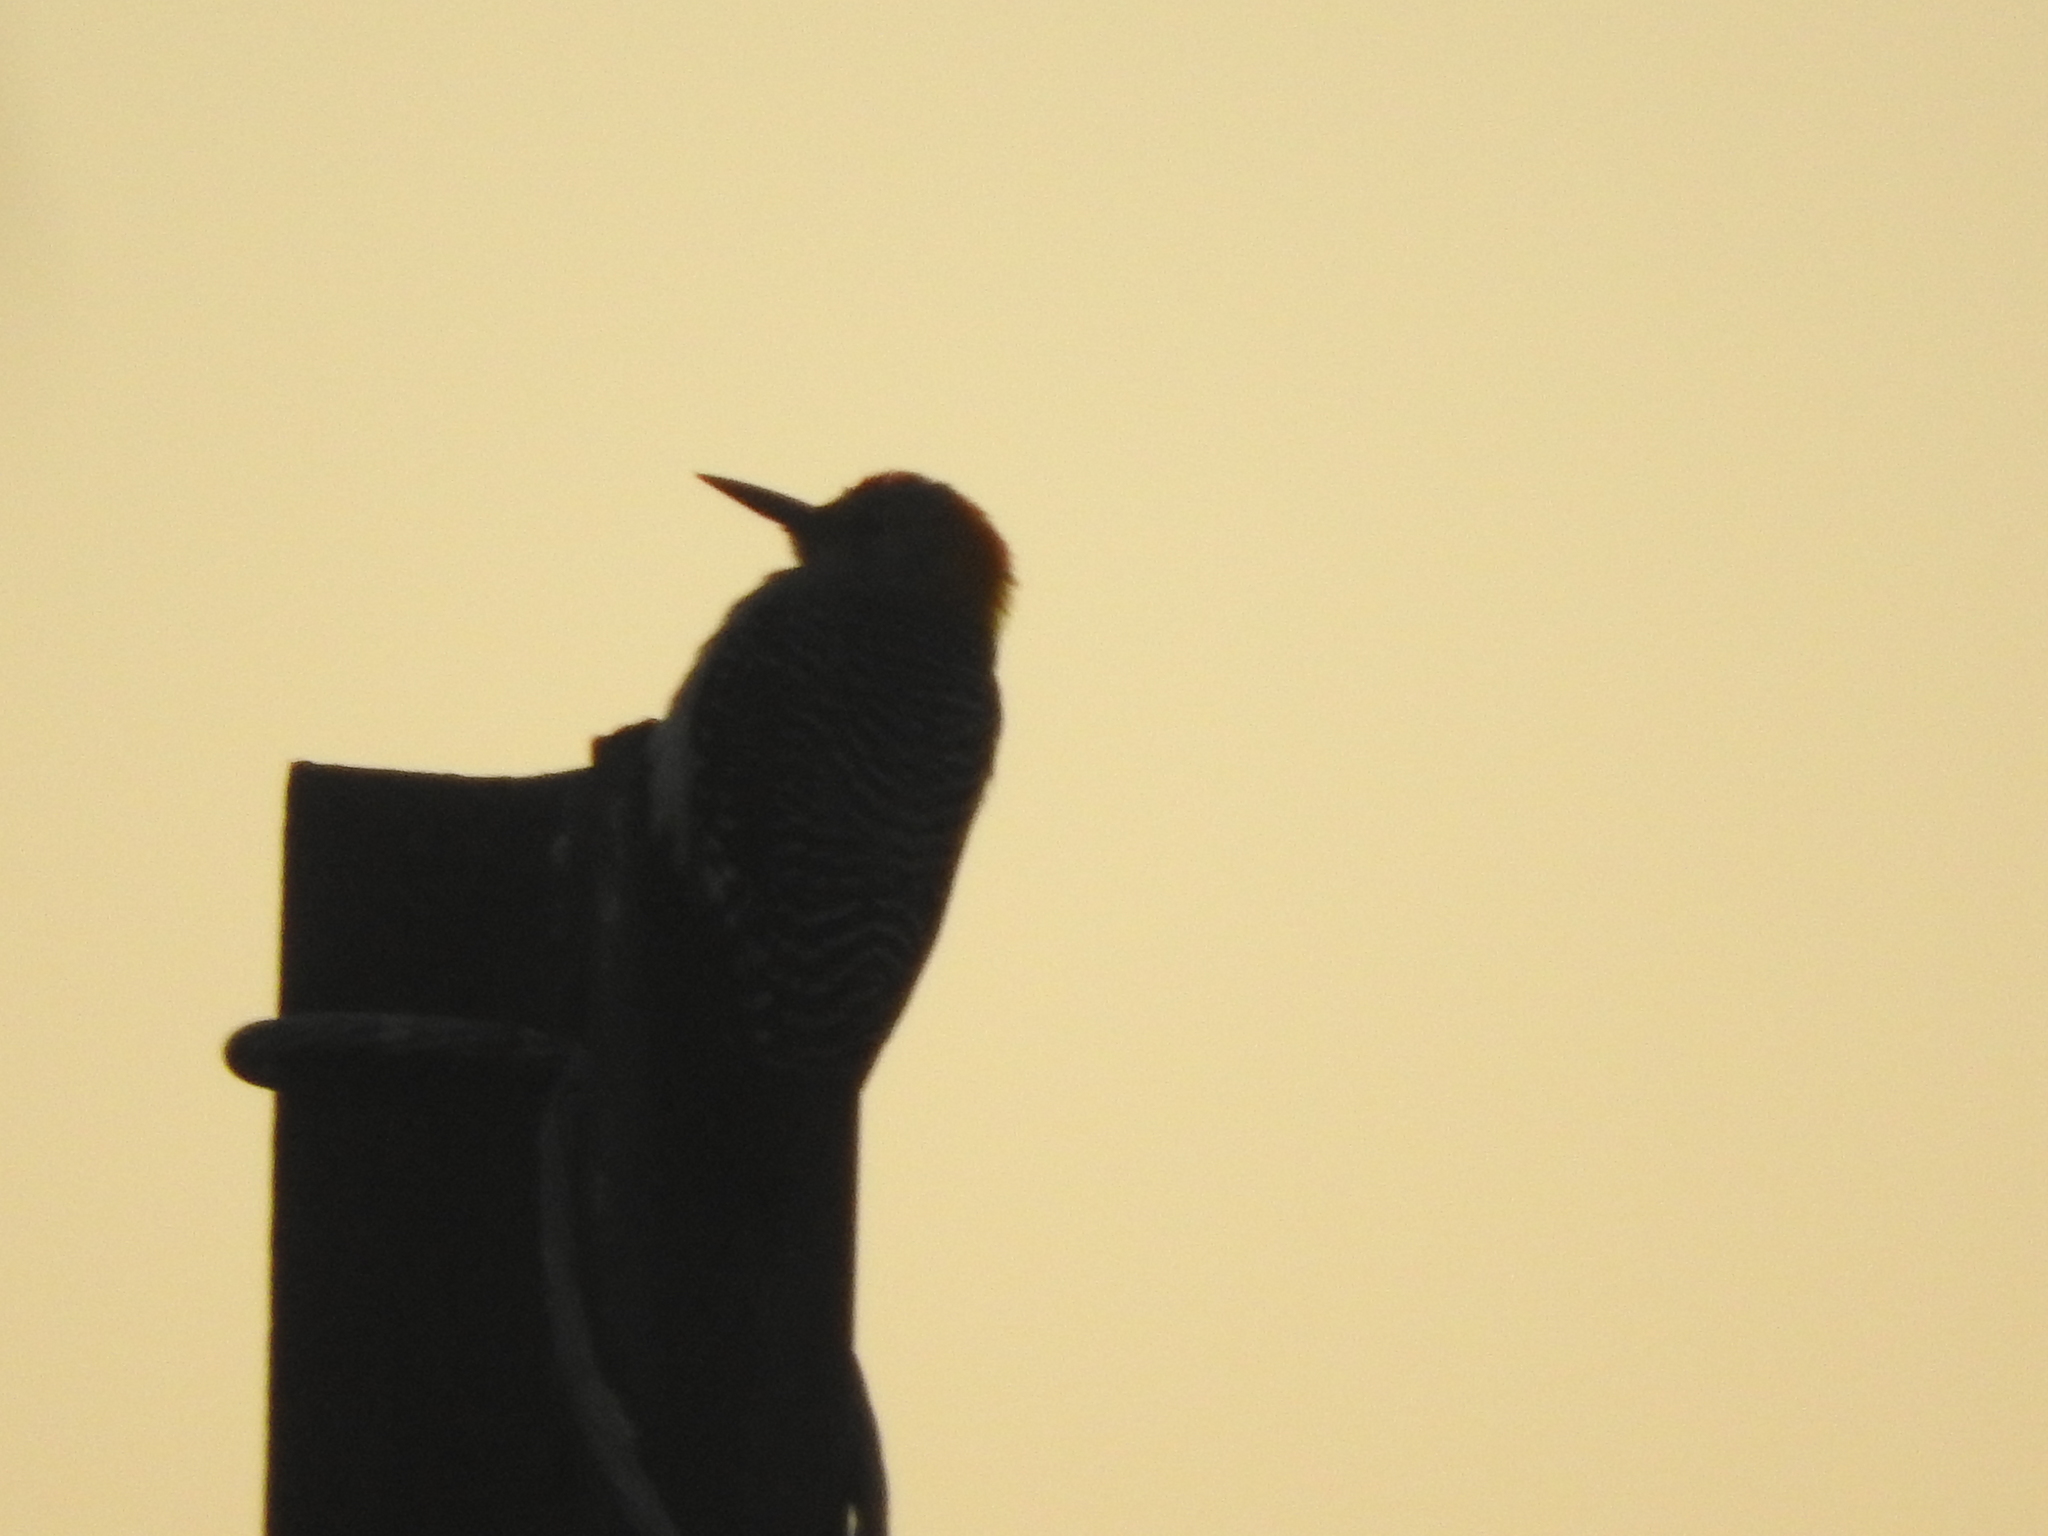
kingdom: Animalia
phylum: Chordata
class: Aves
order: Piciformes
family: Picidae
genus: Melanerpes
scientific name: Melanerpes aurifrons
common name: Golden-fronted woodpecker
